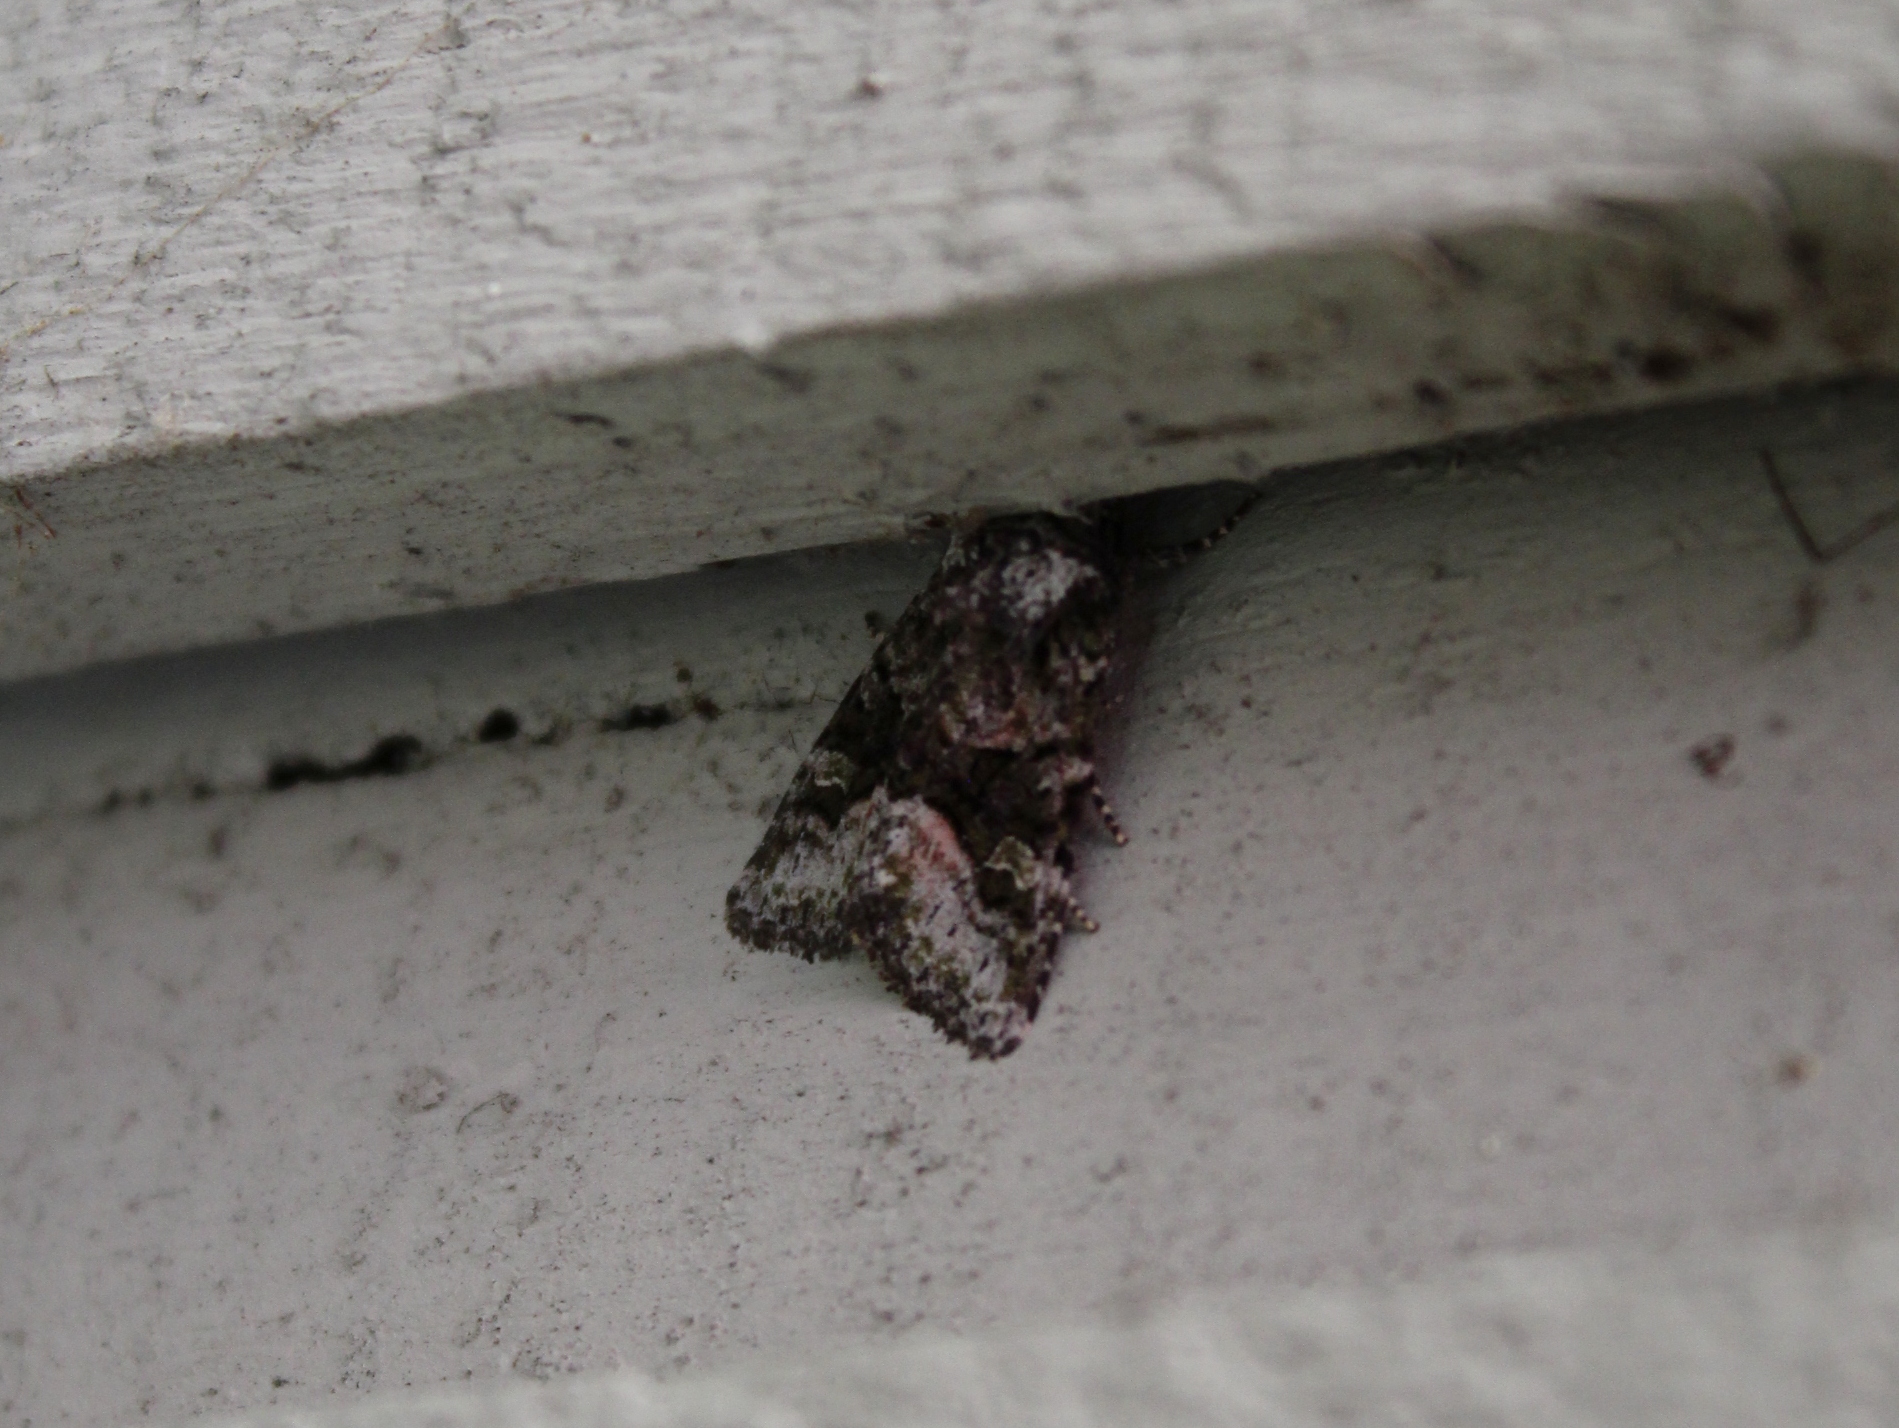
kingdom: Animalia
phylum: Arthropoda
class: Insecta
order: Lepidoptera
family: Noctuidae
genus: Lacinipolia
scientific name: Lacinipolia olivacea
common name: Olive arches moth
